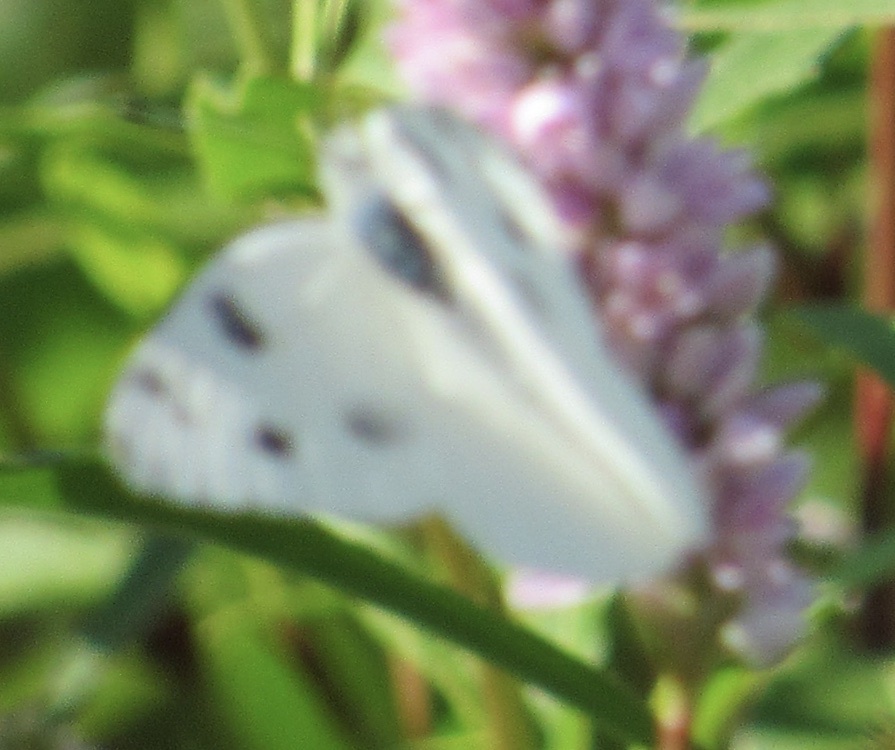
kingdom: Animalia
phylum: Arthropoda
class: Insecta
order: Lepidoptera
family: Pieridae
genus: Pontia
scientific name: Pontia protodice
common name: Checkered white
